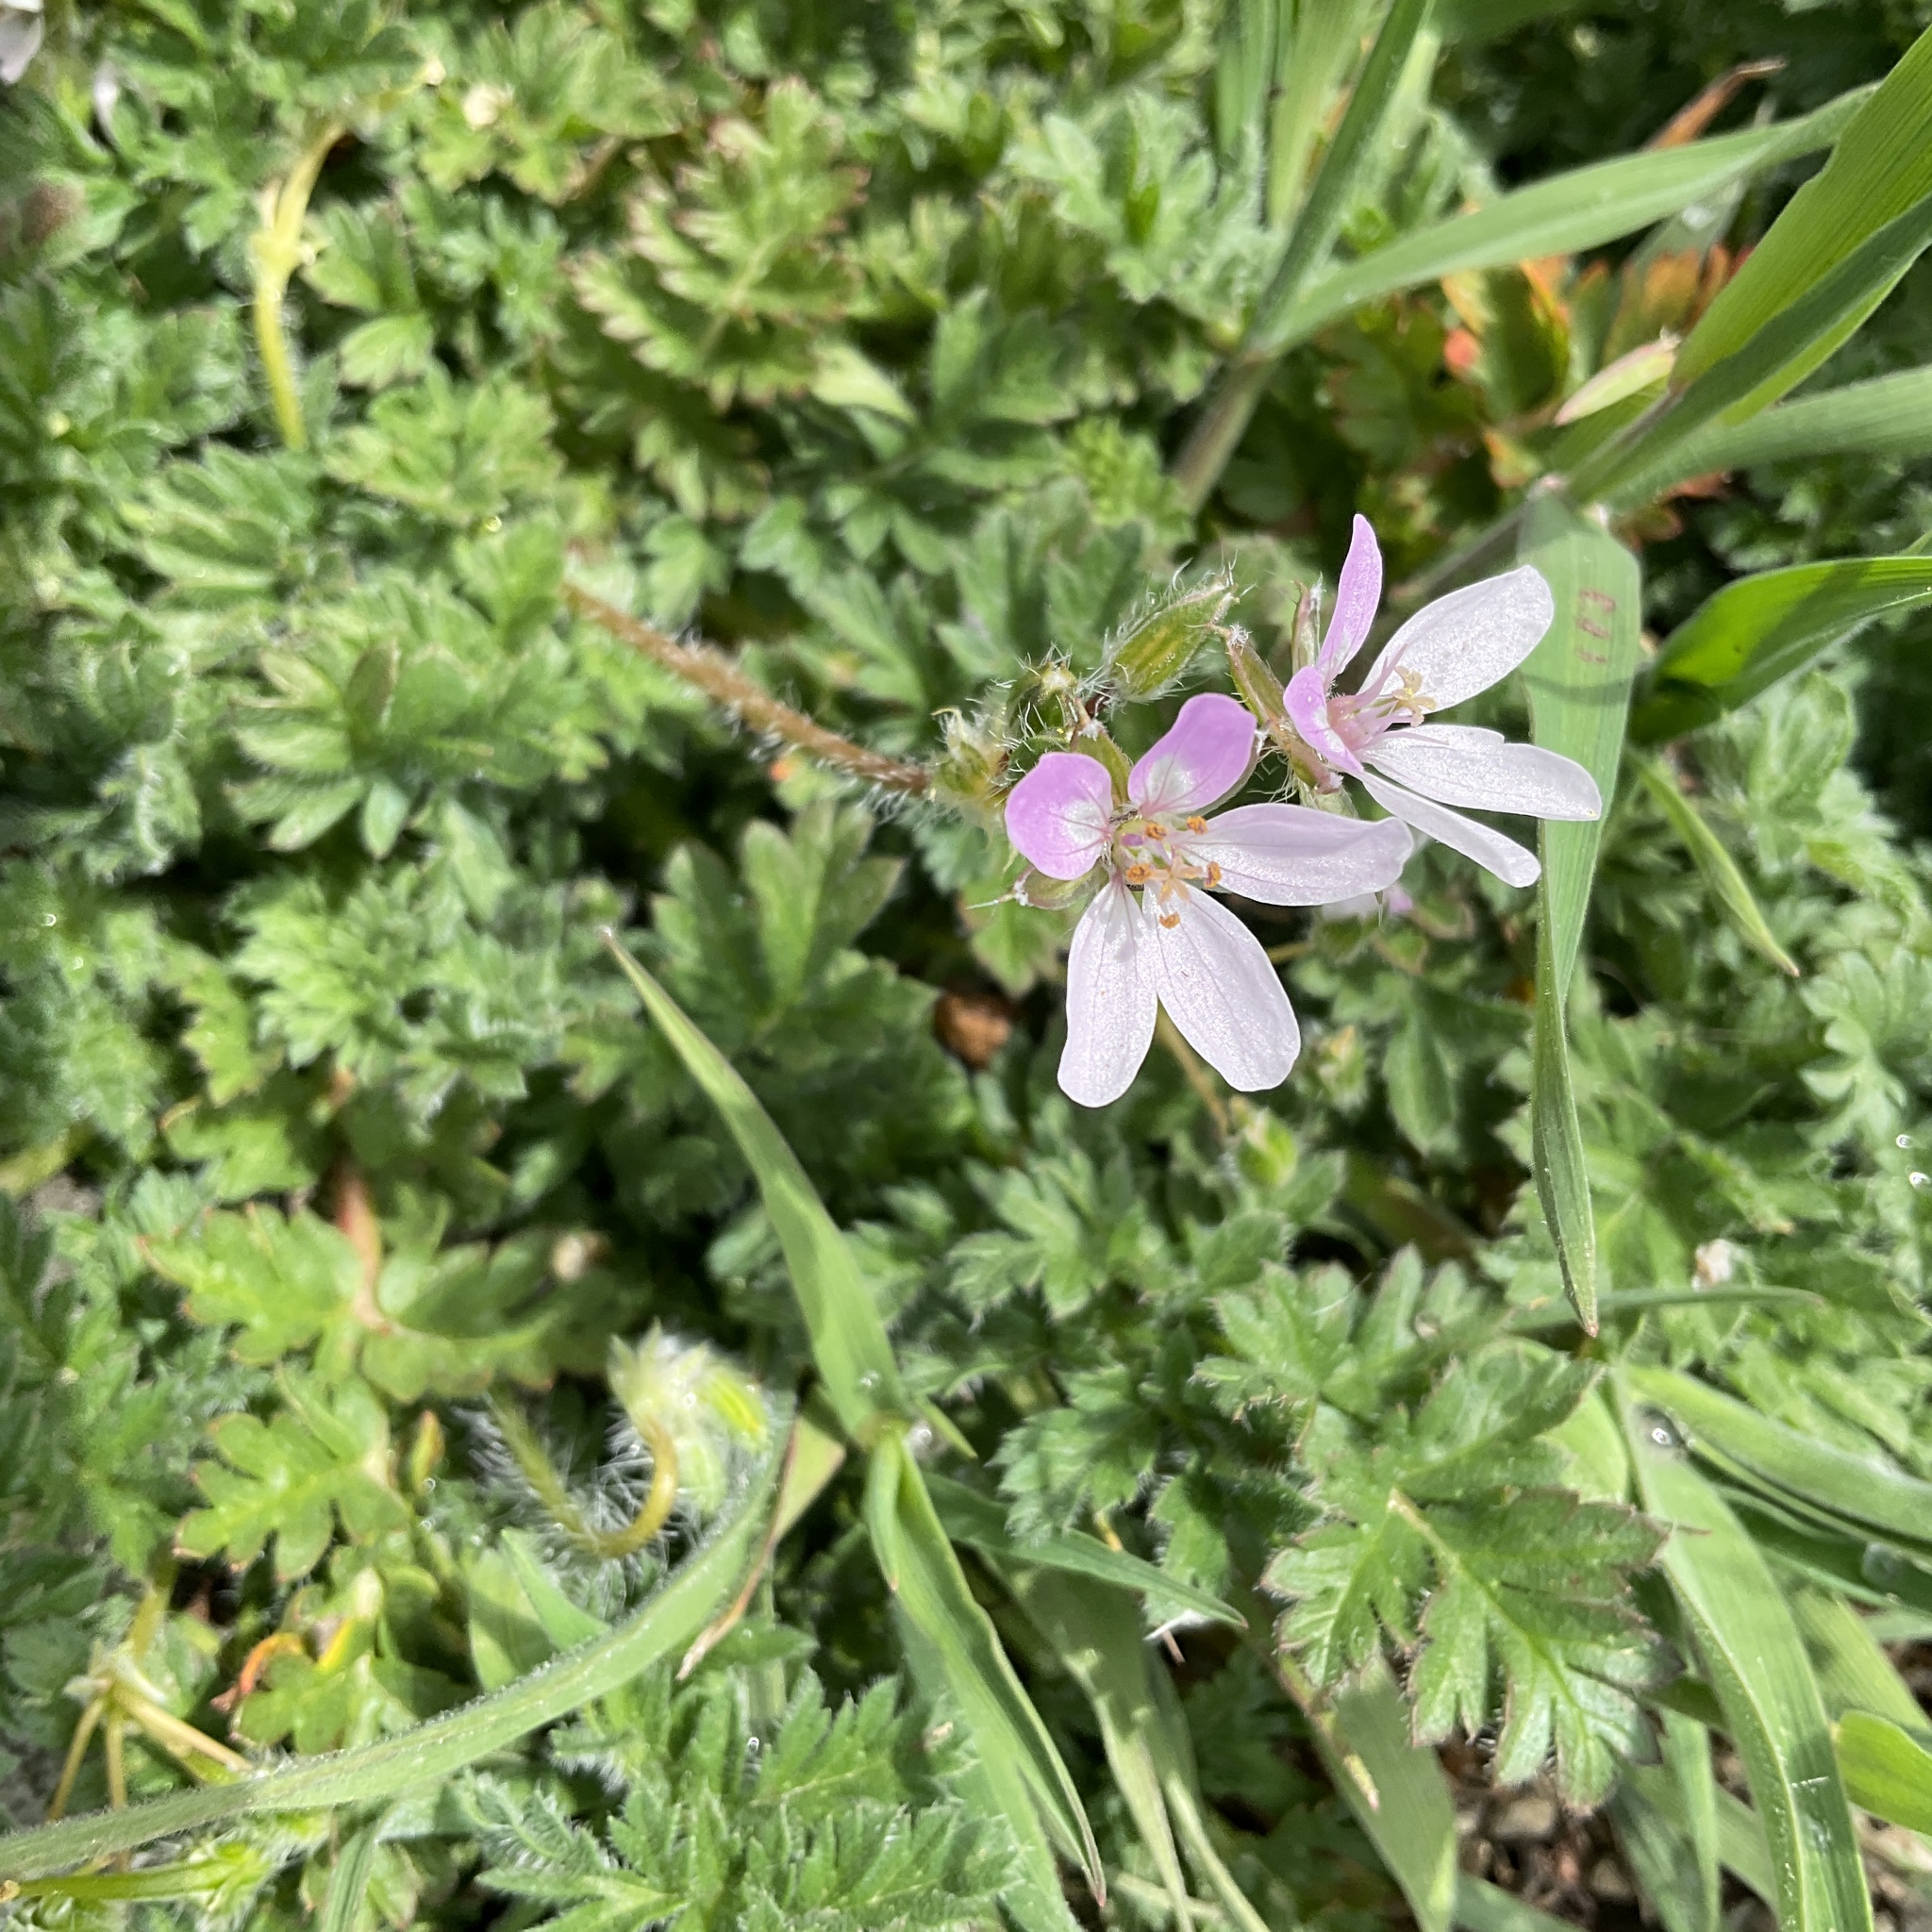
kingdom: Plantae
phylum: Tracheophyta
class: Magnoliopsida
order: Geraniales
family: Geraniaceae
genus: Erodium
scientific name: Erodium cicutarium
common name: Common stork's-bill
